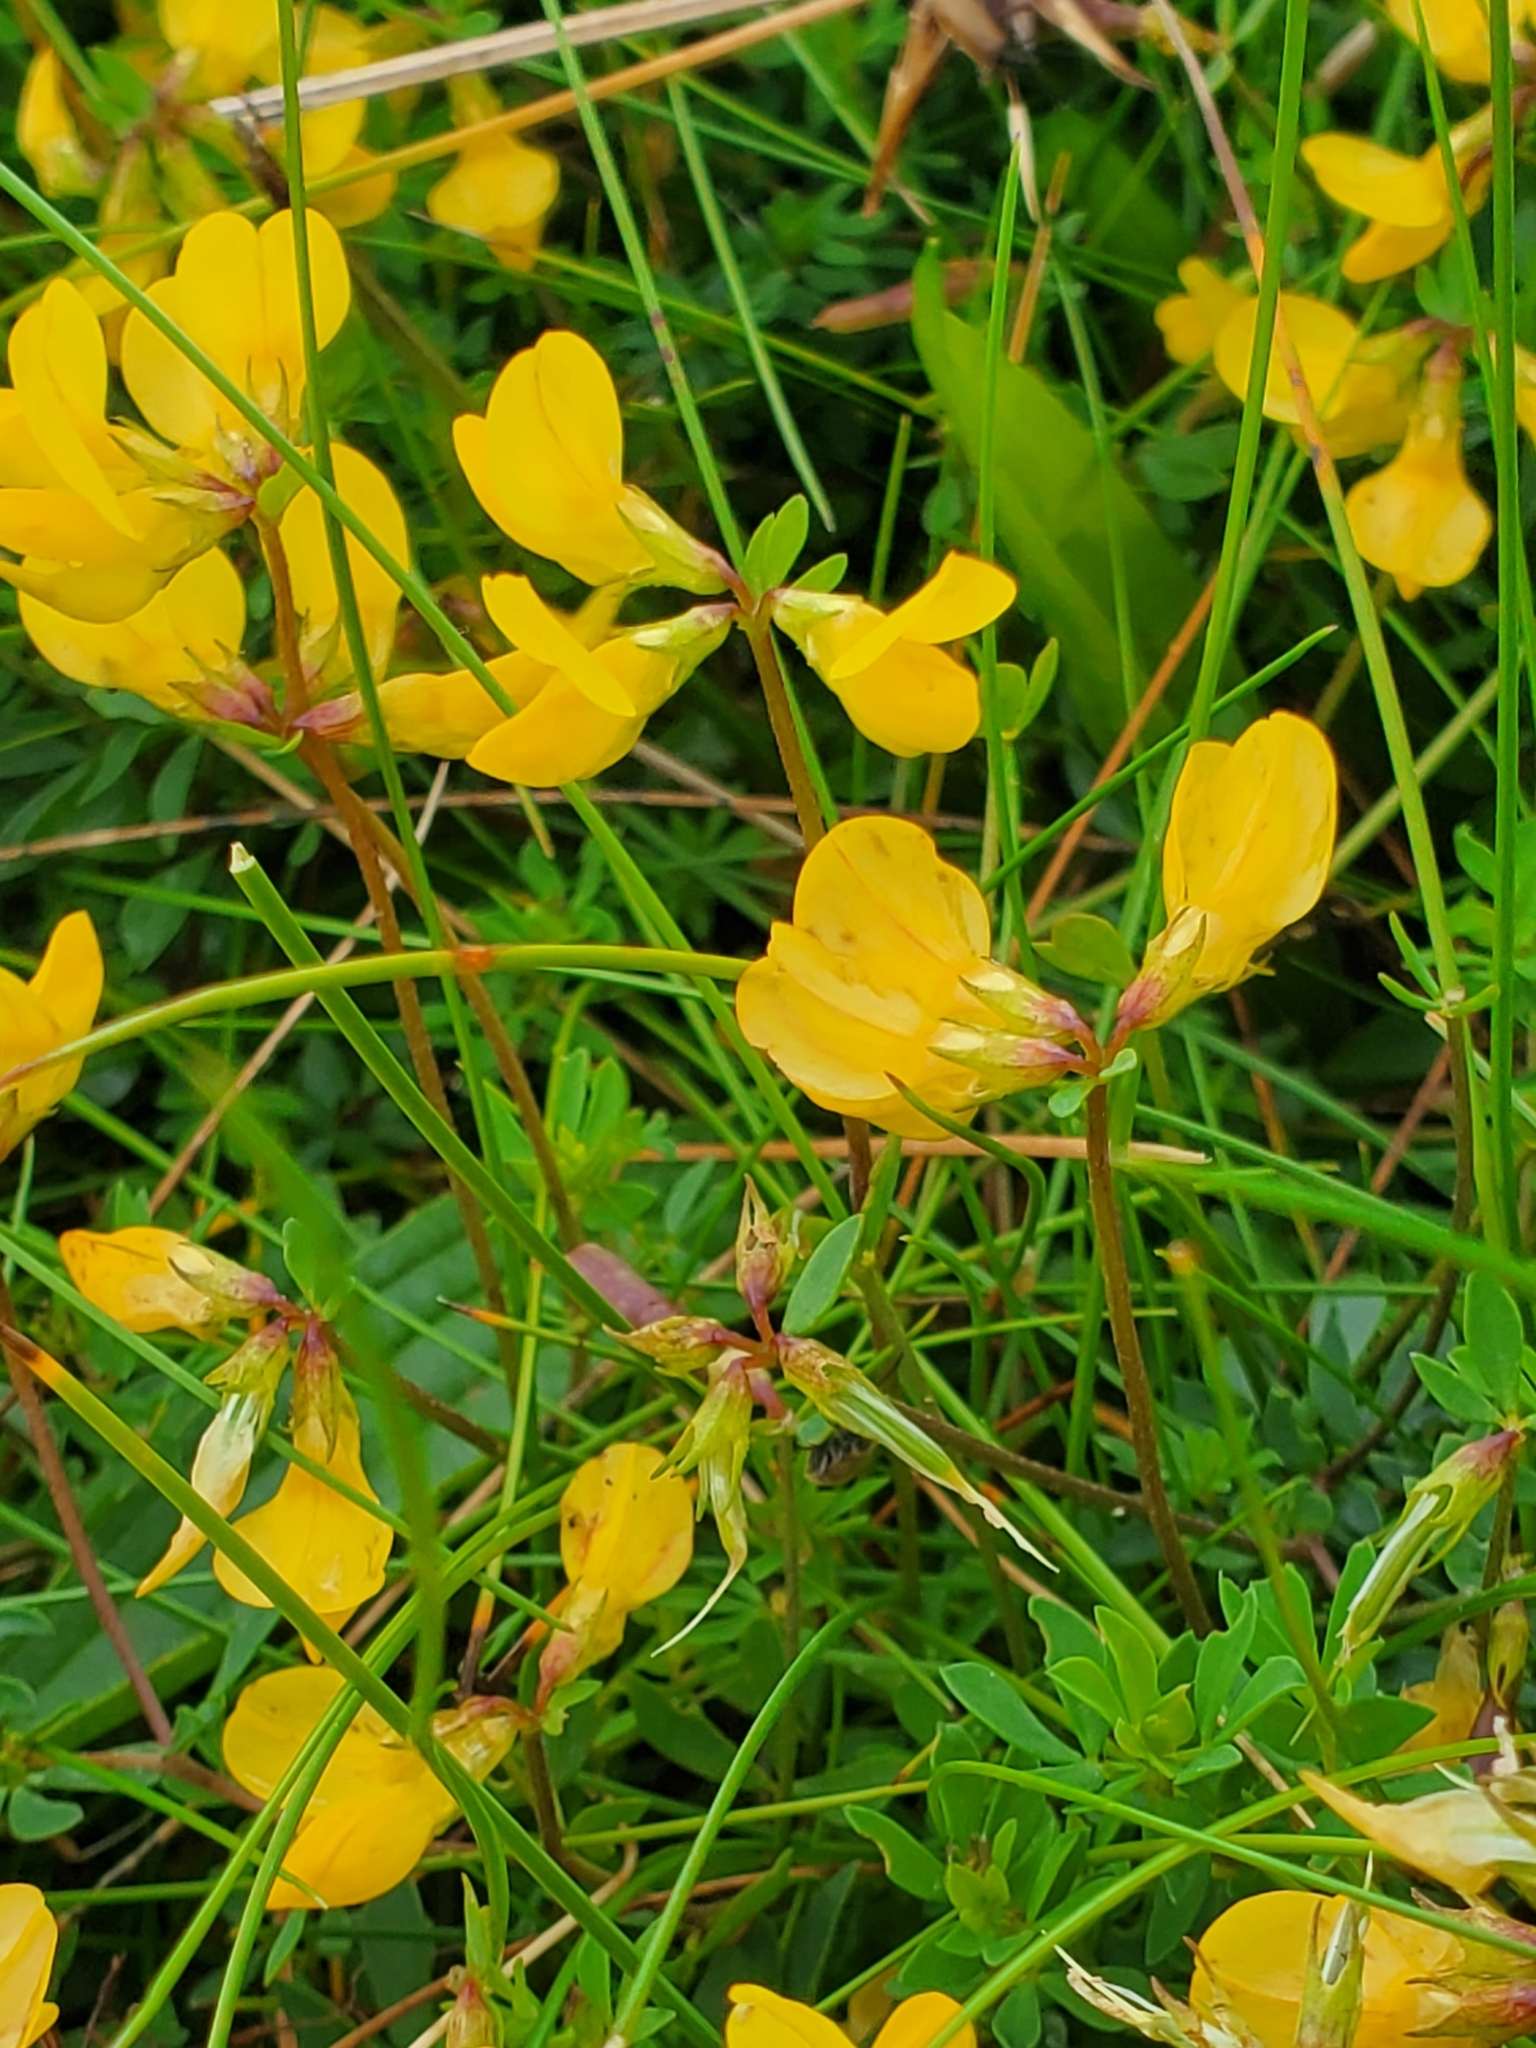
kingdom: Plantae
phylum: Tracheophyta
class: Magnoliopsida
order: Fabales
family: Fabaceae
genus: Lotus
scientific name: Lotus corniculatus
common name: Common bird's-foot-trefoil
